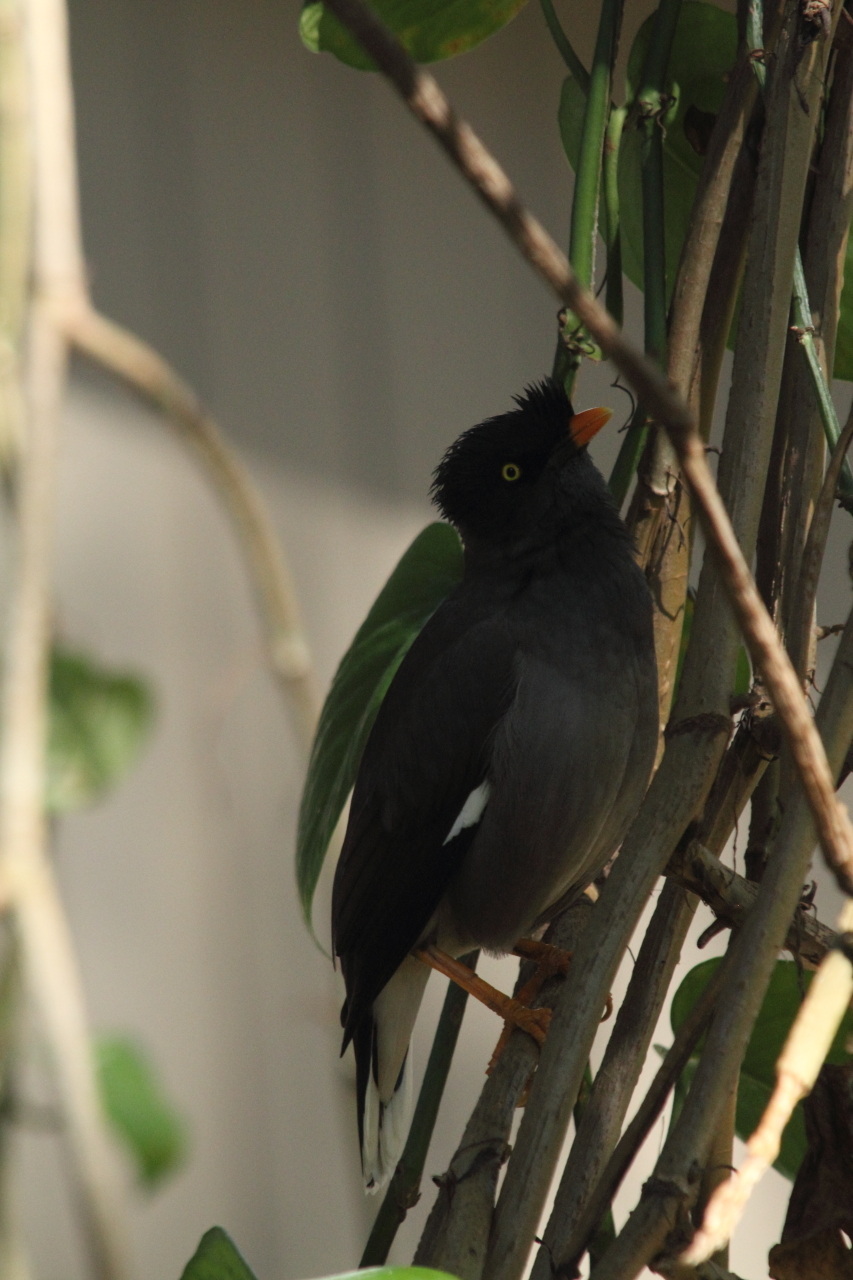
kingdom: Animalia
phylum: Chordata
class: Aves
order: Passeriformes
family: Sturnidae
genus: Acridotheres
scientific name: Acridotheres fuscus
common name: Jungle myna
